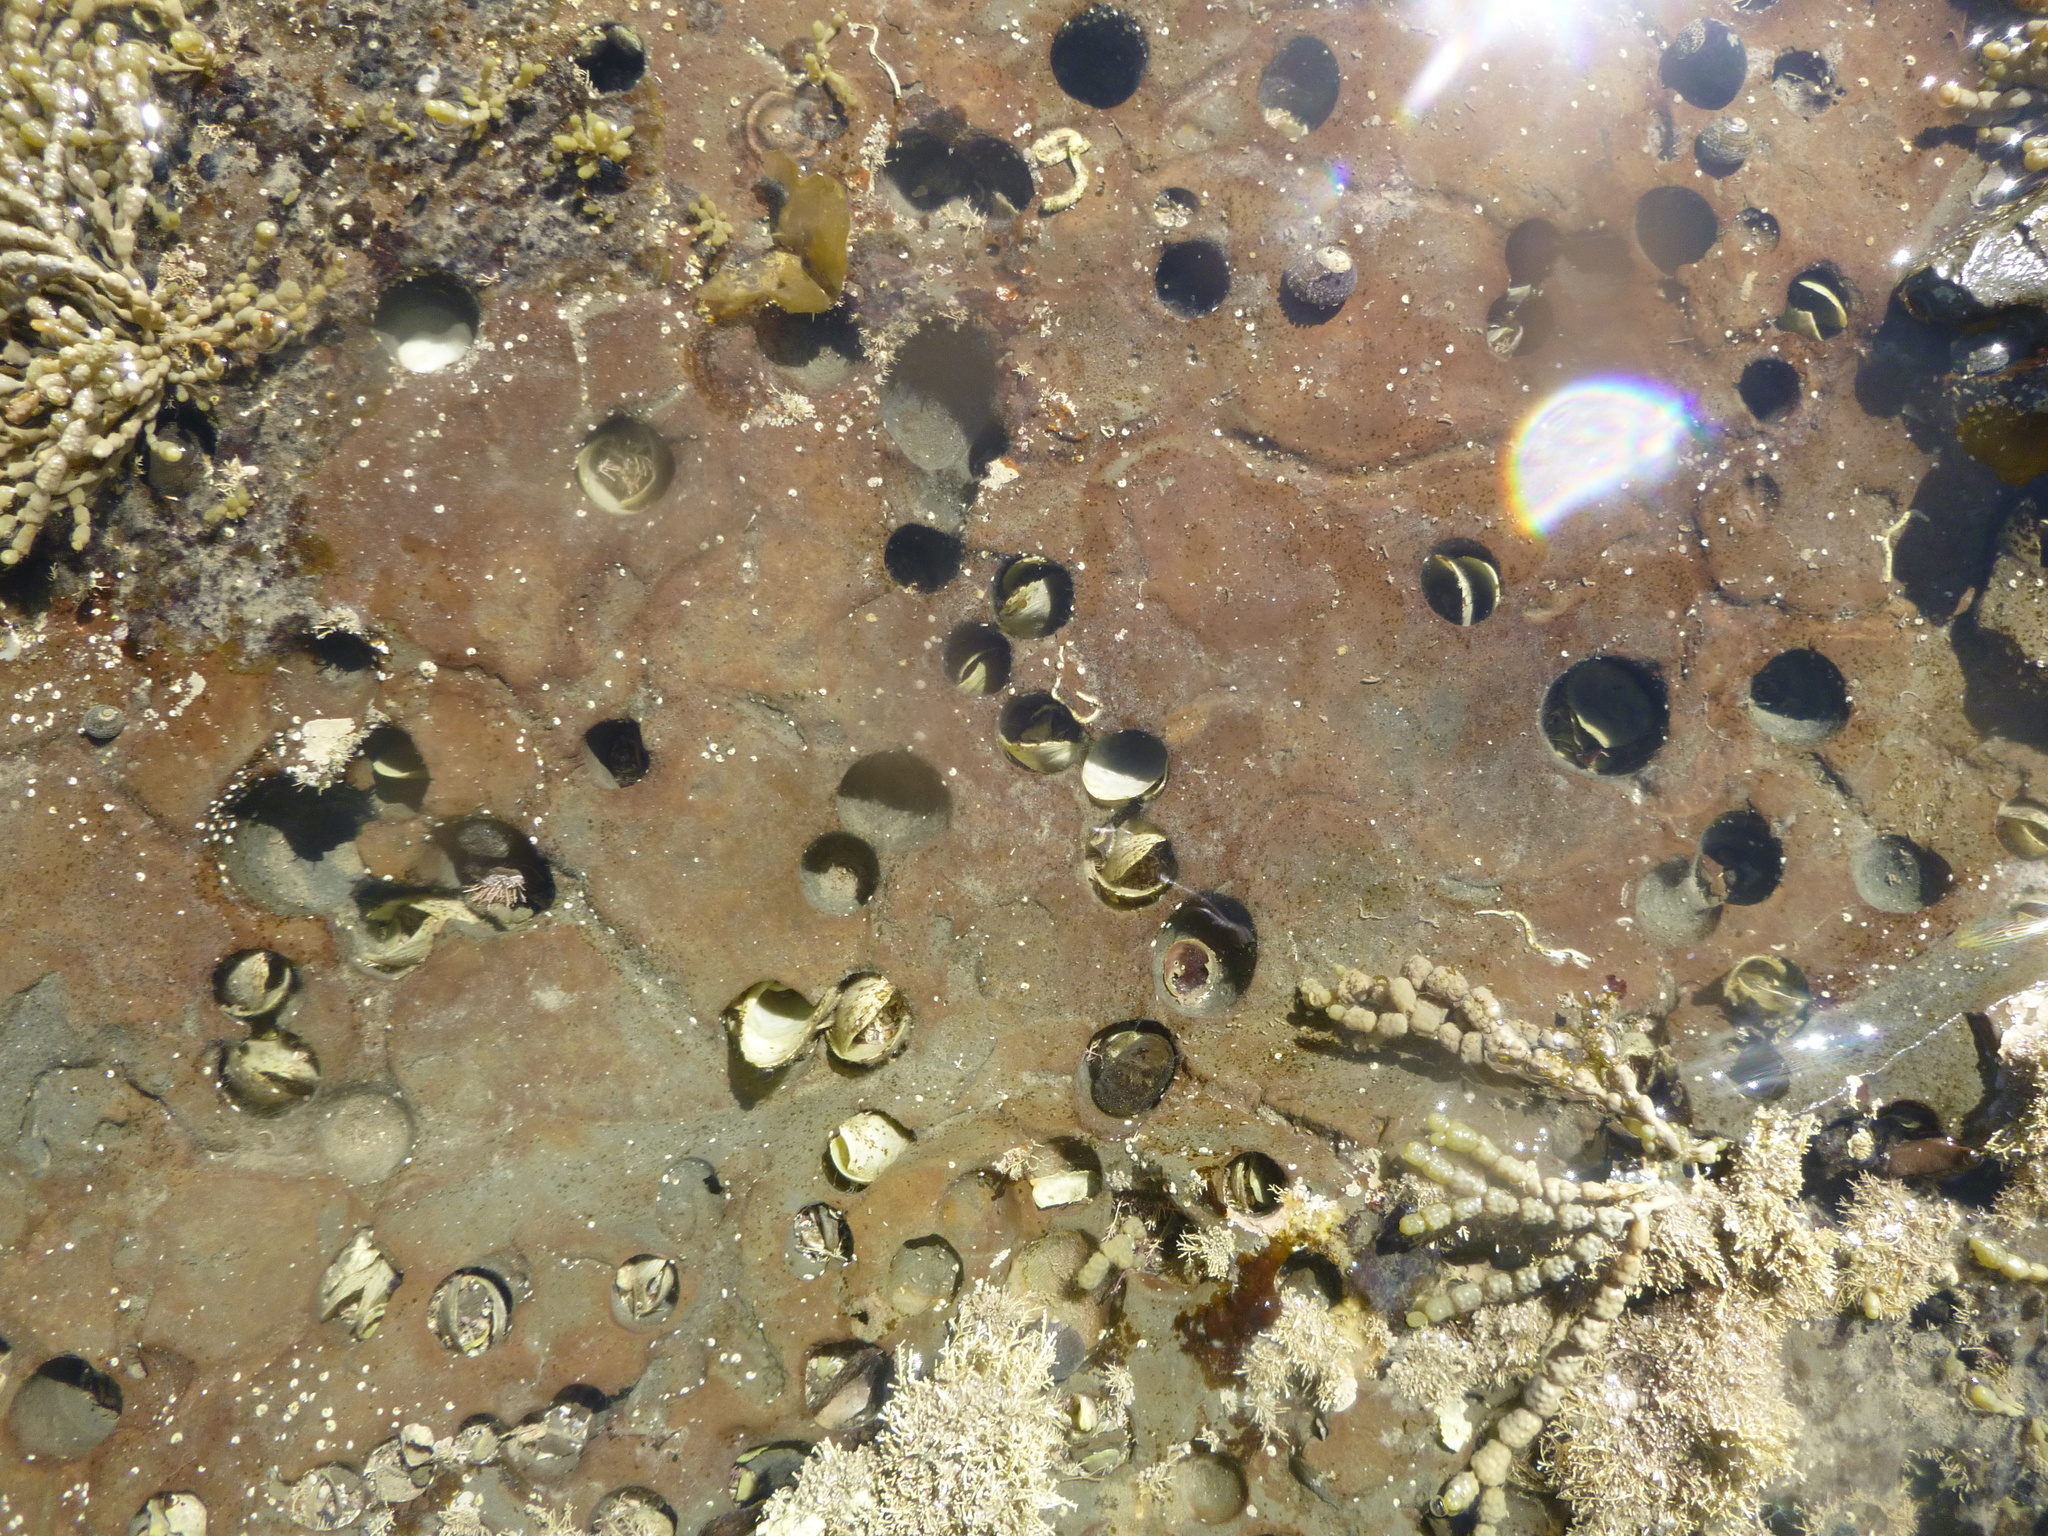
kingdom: Animalia
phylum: Mollusca
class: Bivalvia
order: Myida
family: Pholadidae
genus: Barnea
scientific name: Barnea similis
